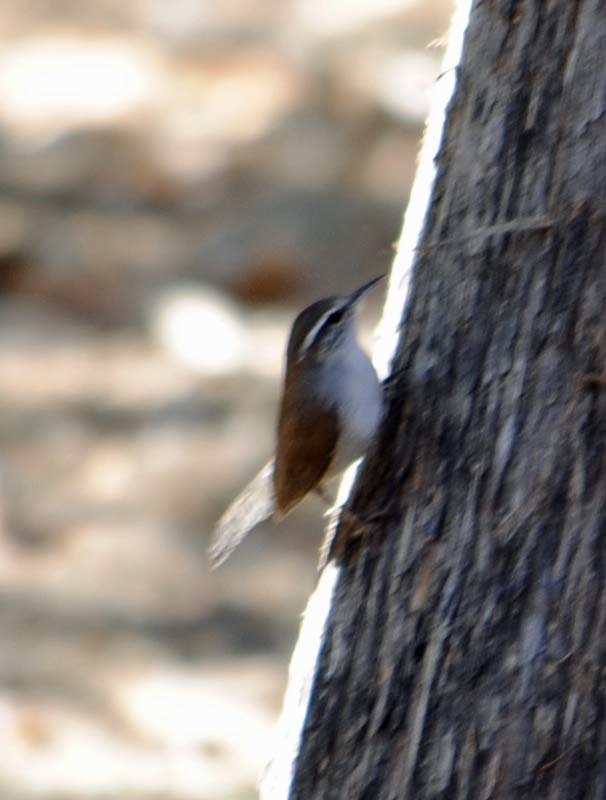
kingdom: Animalia
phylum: Chordata
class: Aves
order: Passeriformes
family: Troglodytidae
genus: Thryomanes
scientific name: Thryomanes bewickii
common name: Bewick's wren
